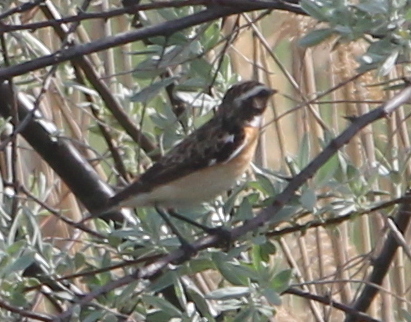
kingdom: Animalia
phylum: Chordata
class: Aves
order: Passeriformes
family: Muscicapidae
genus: Saxicola
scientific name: Saxicola rubetra
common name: Whinchat
